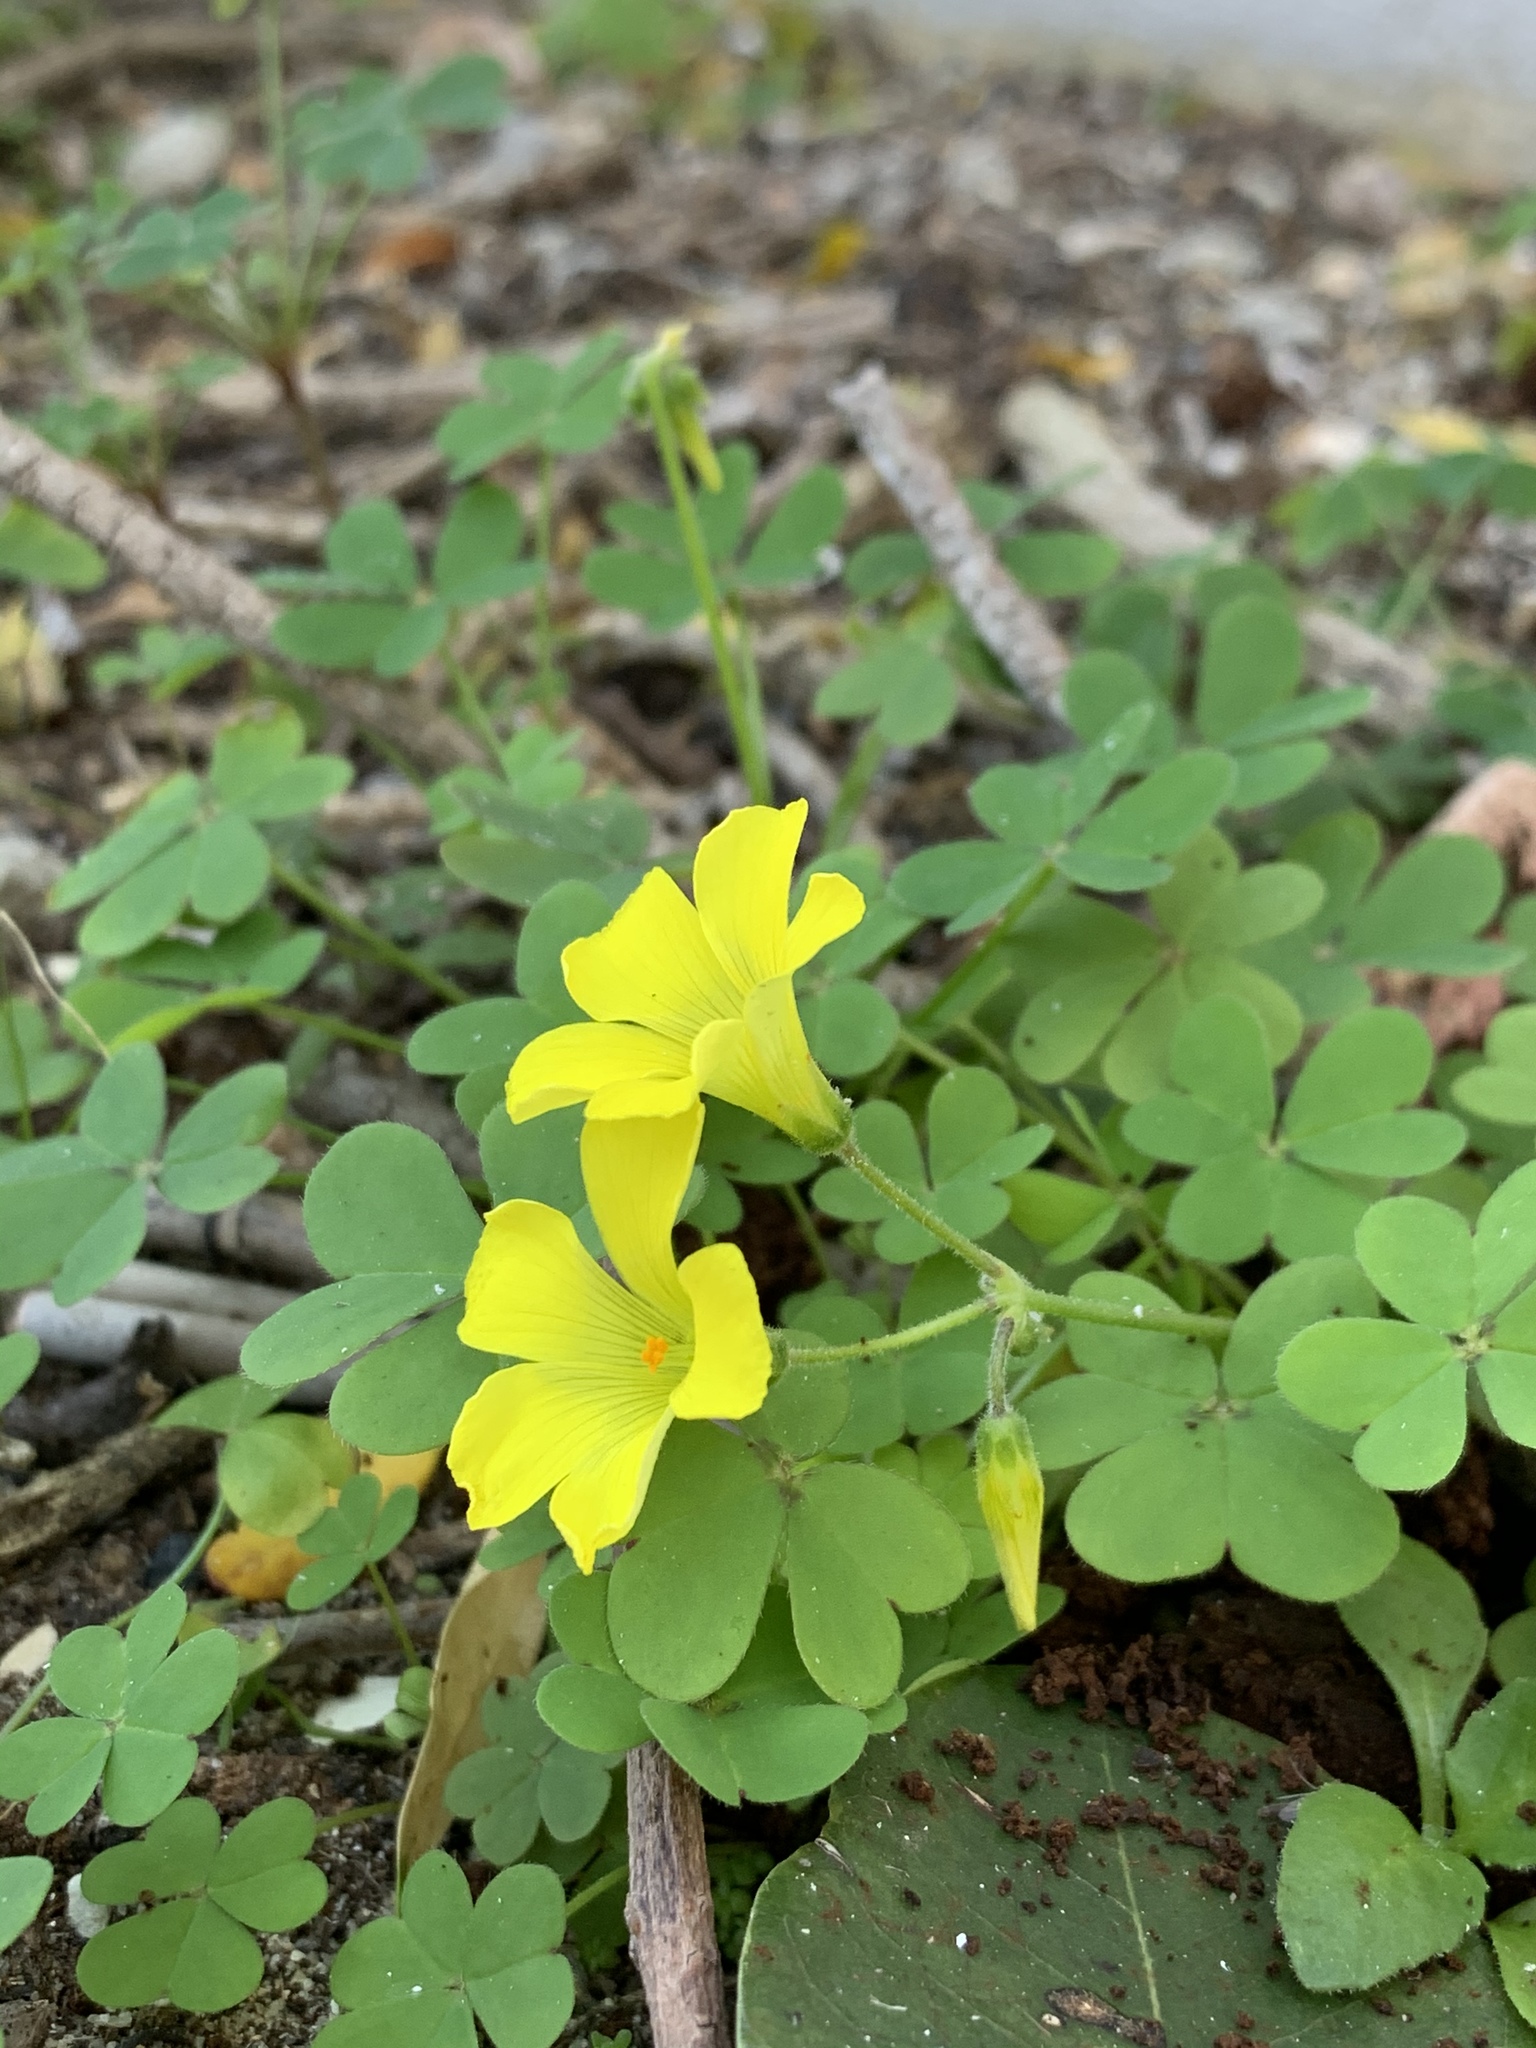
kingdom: Plantae
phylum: Tracheophyta
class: Magnoliopsida
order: Oxalidales
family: Oxalidaceae
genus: Oxalis
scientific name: Oxalis pes-caprae
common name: Bermuda-buttercup
